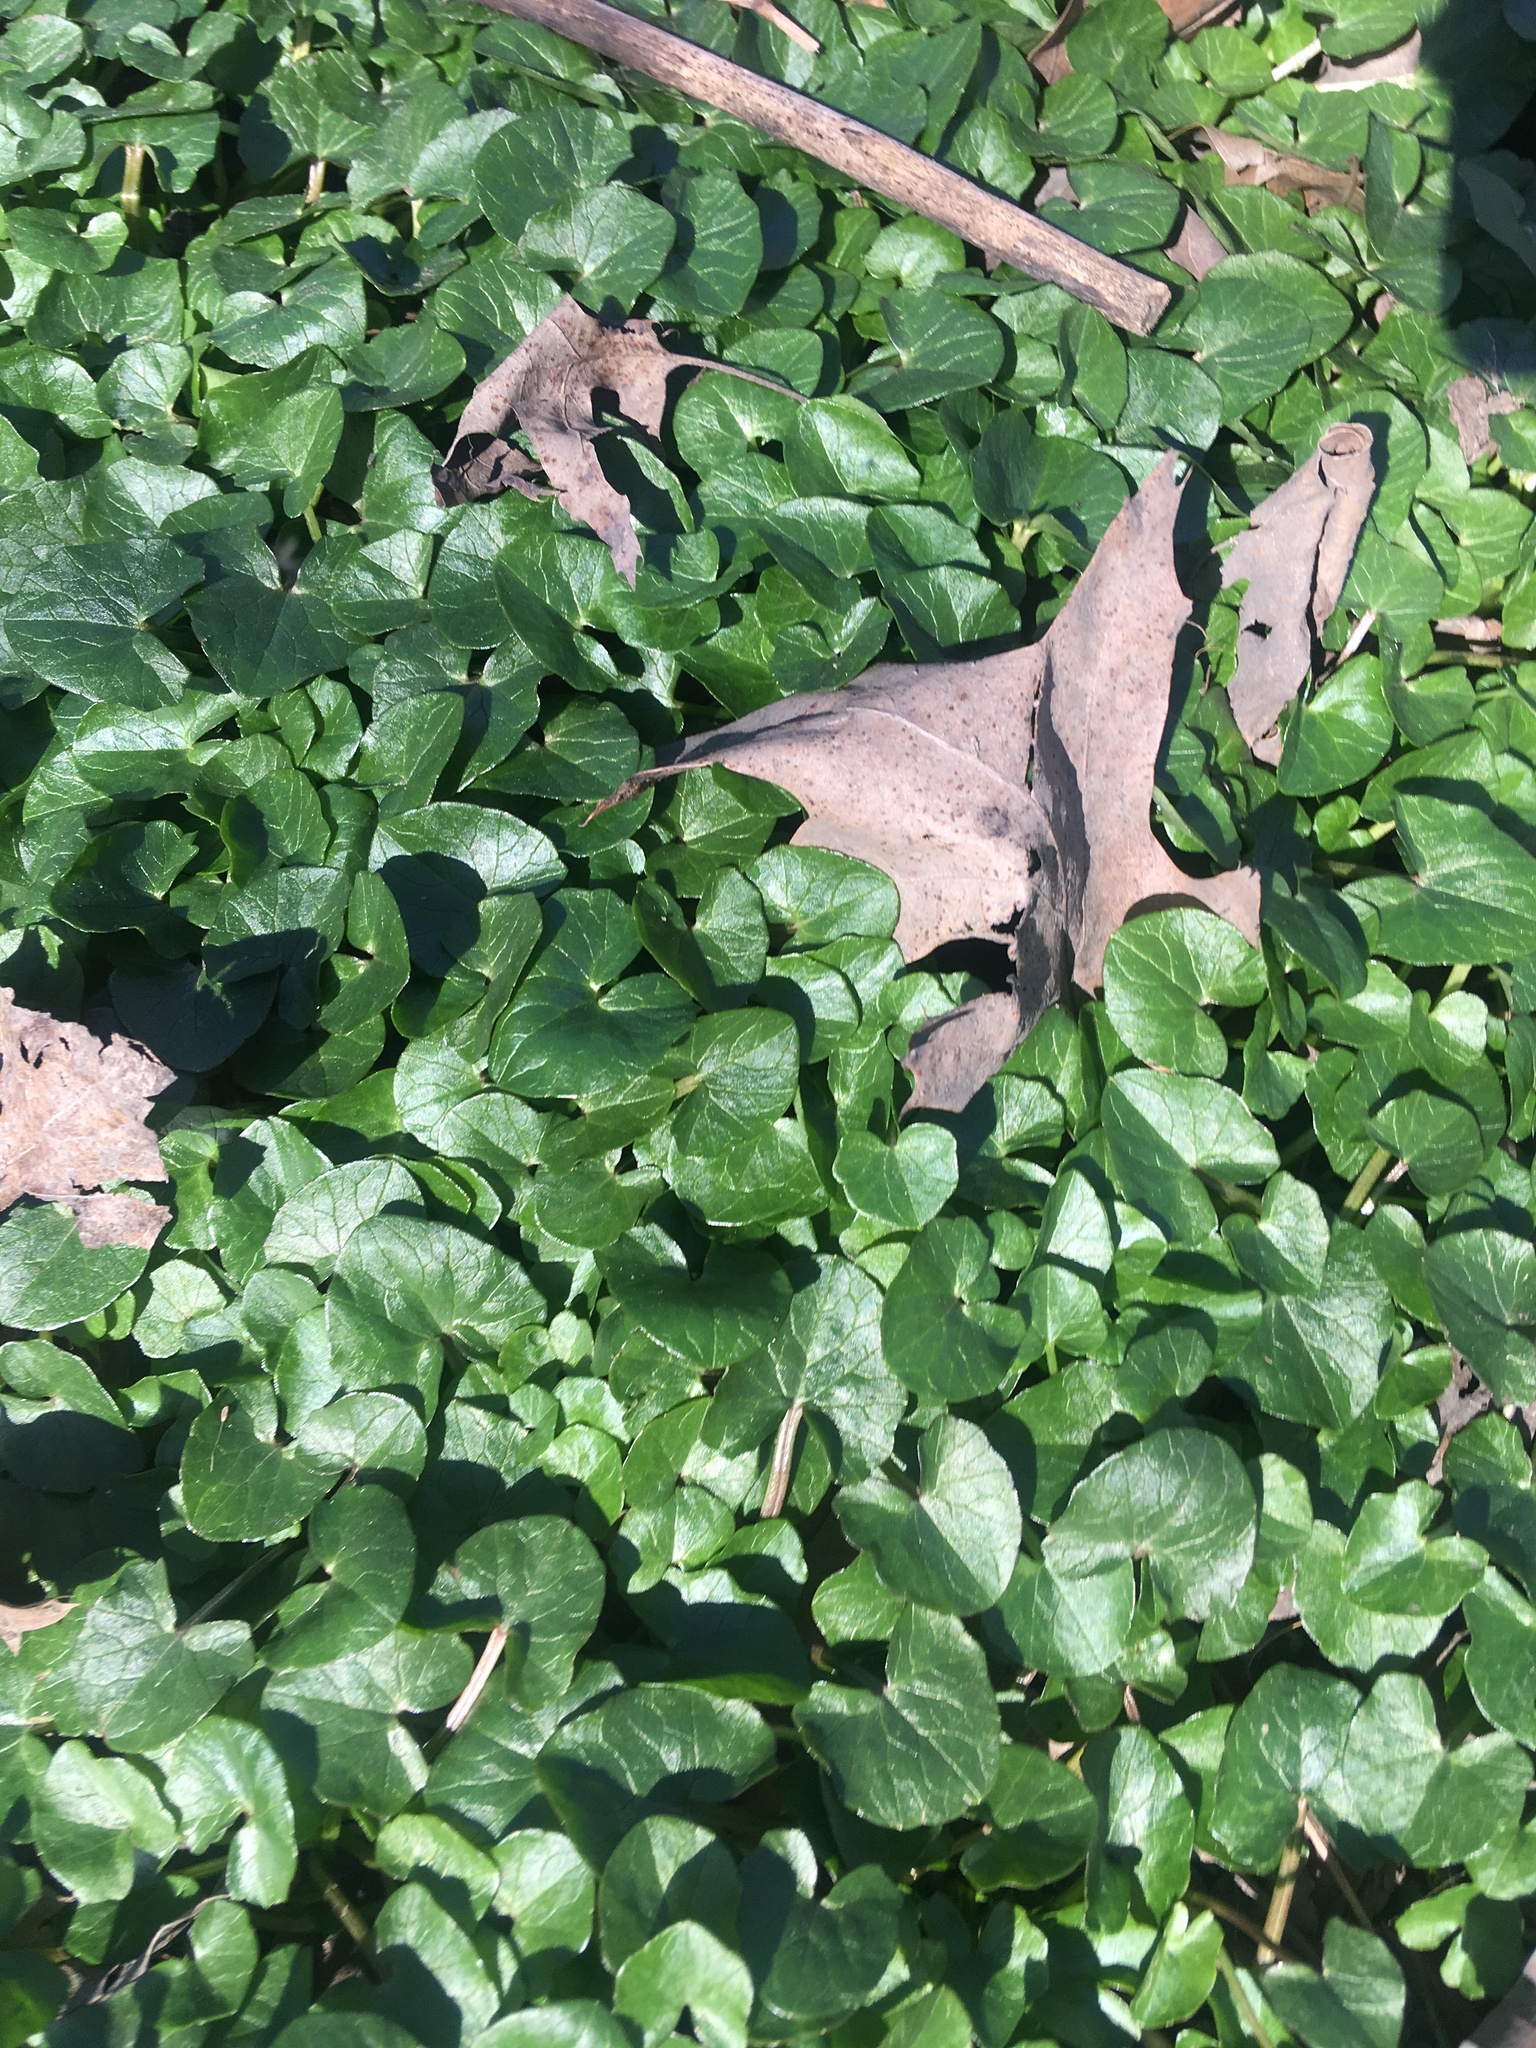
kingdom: Plantae
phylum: Tracheophyta
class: Magnoliopsida
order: Ranunculales
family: Ranunculaceae
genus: Ficaria
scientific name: Ficaria verna
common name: Lesser celandine
